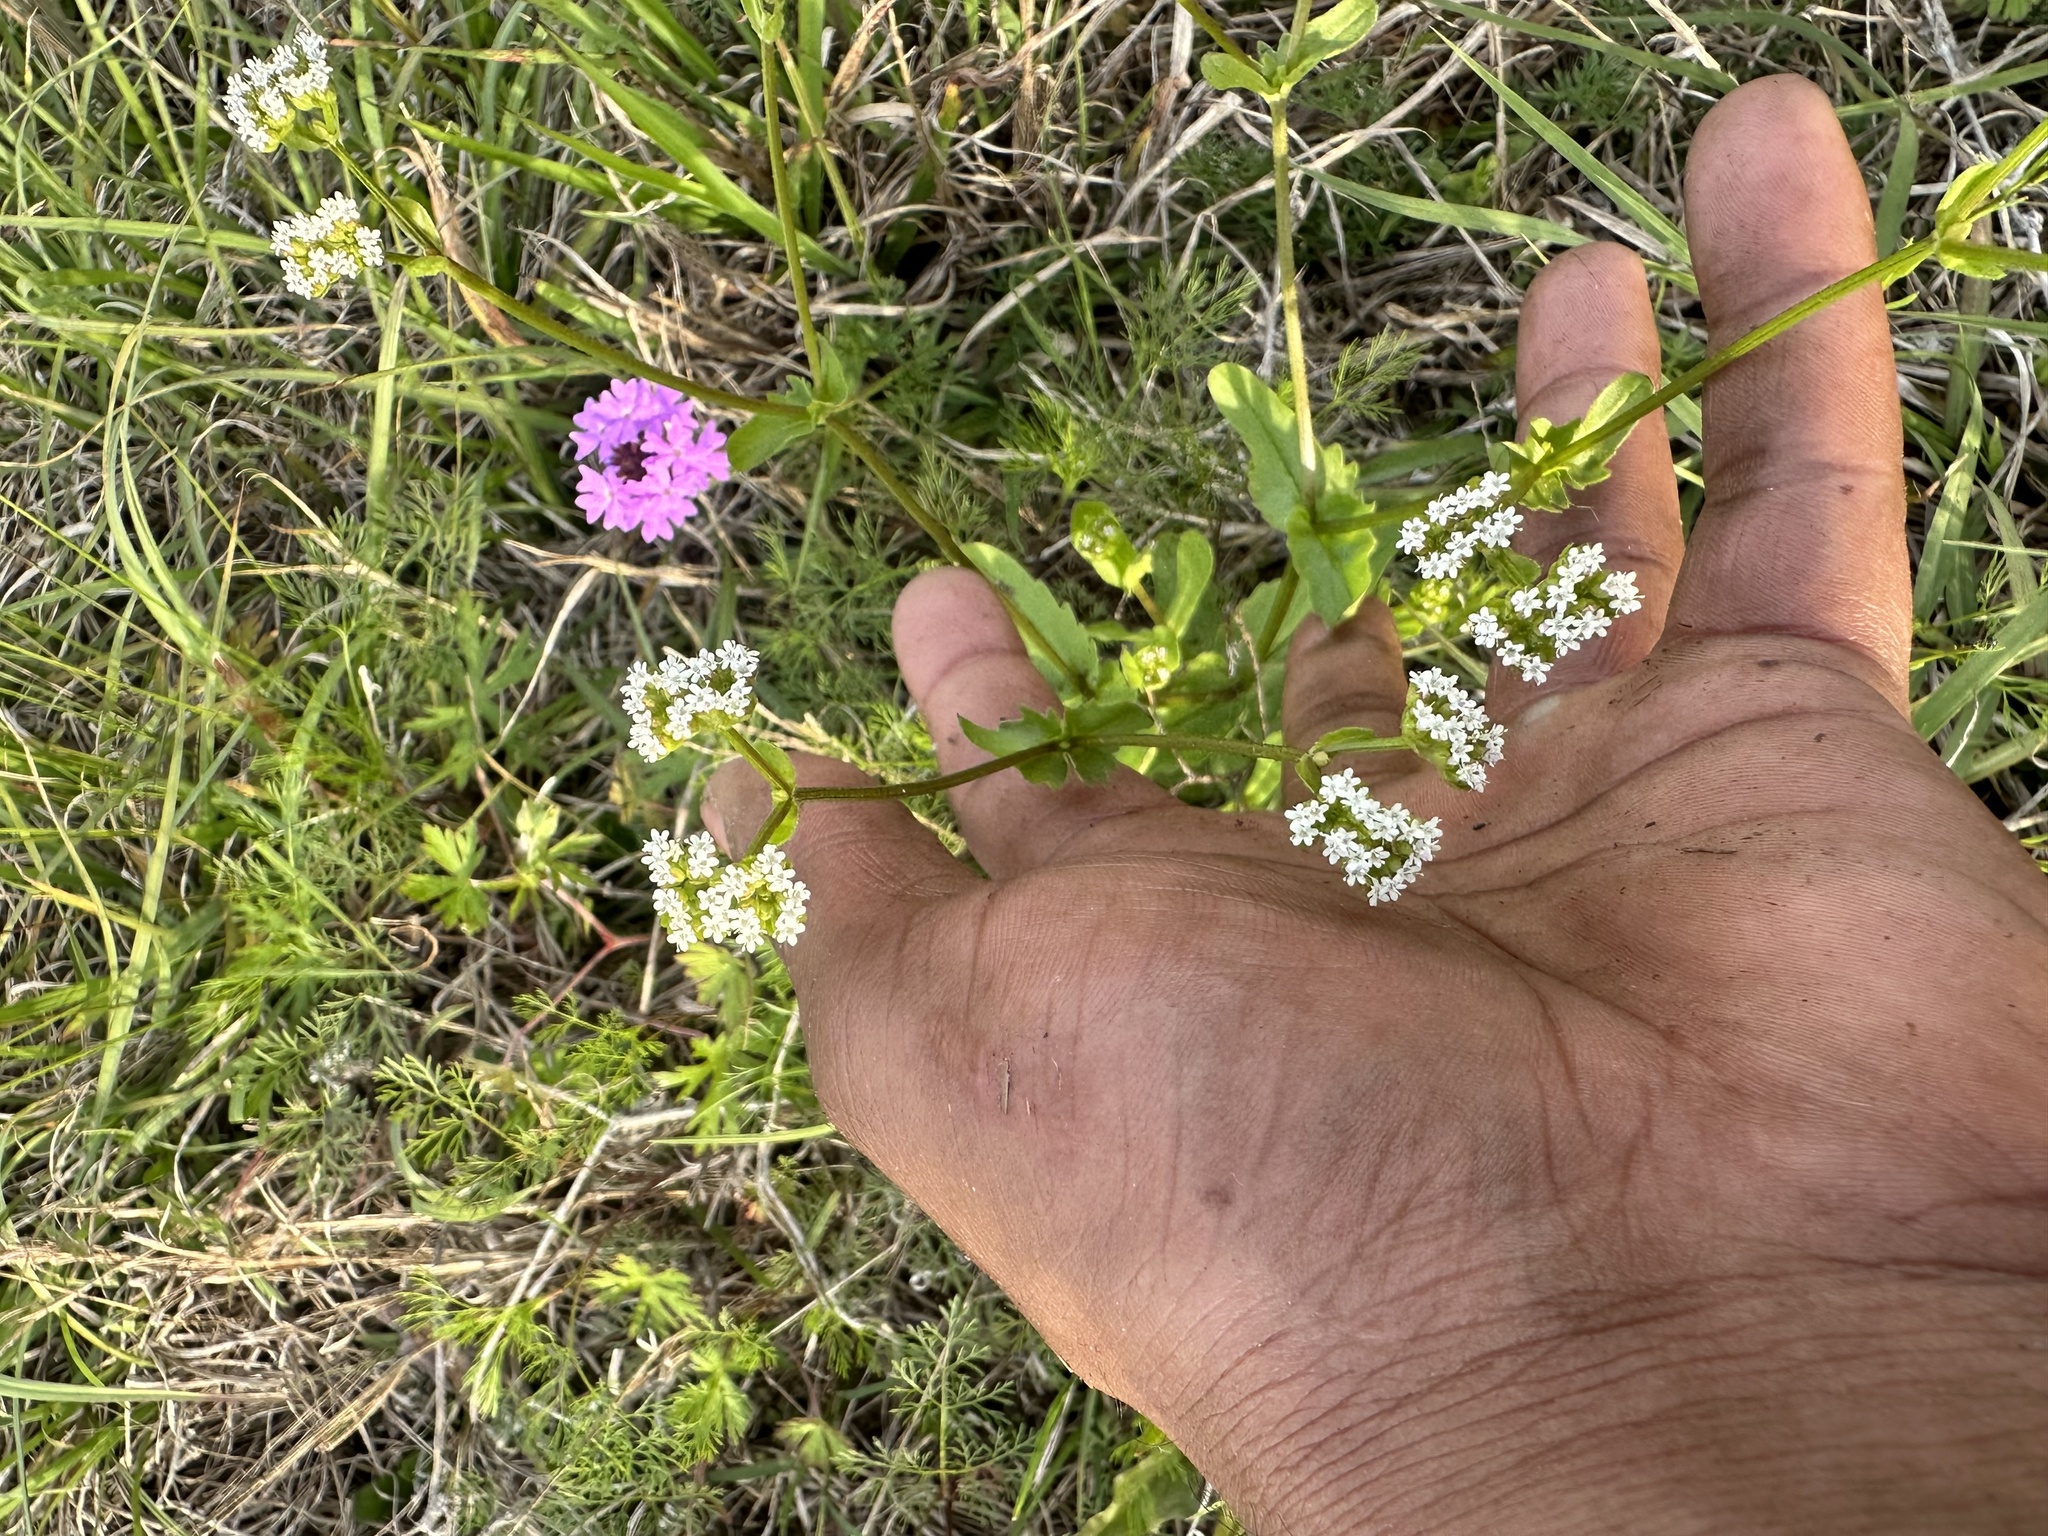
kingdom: Plantae
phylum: Tracheophyta
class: Magnoliopsida
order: Dipsacales
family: Caprifoliaceae
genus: Valerianella
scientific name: Valerianella radiata
